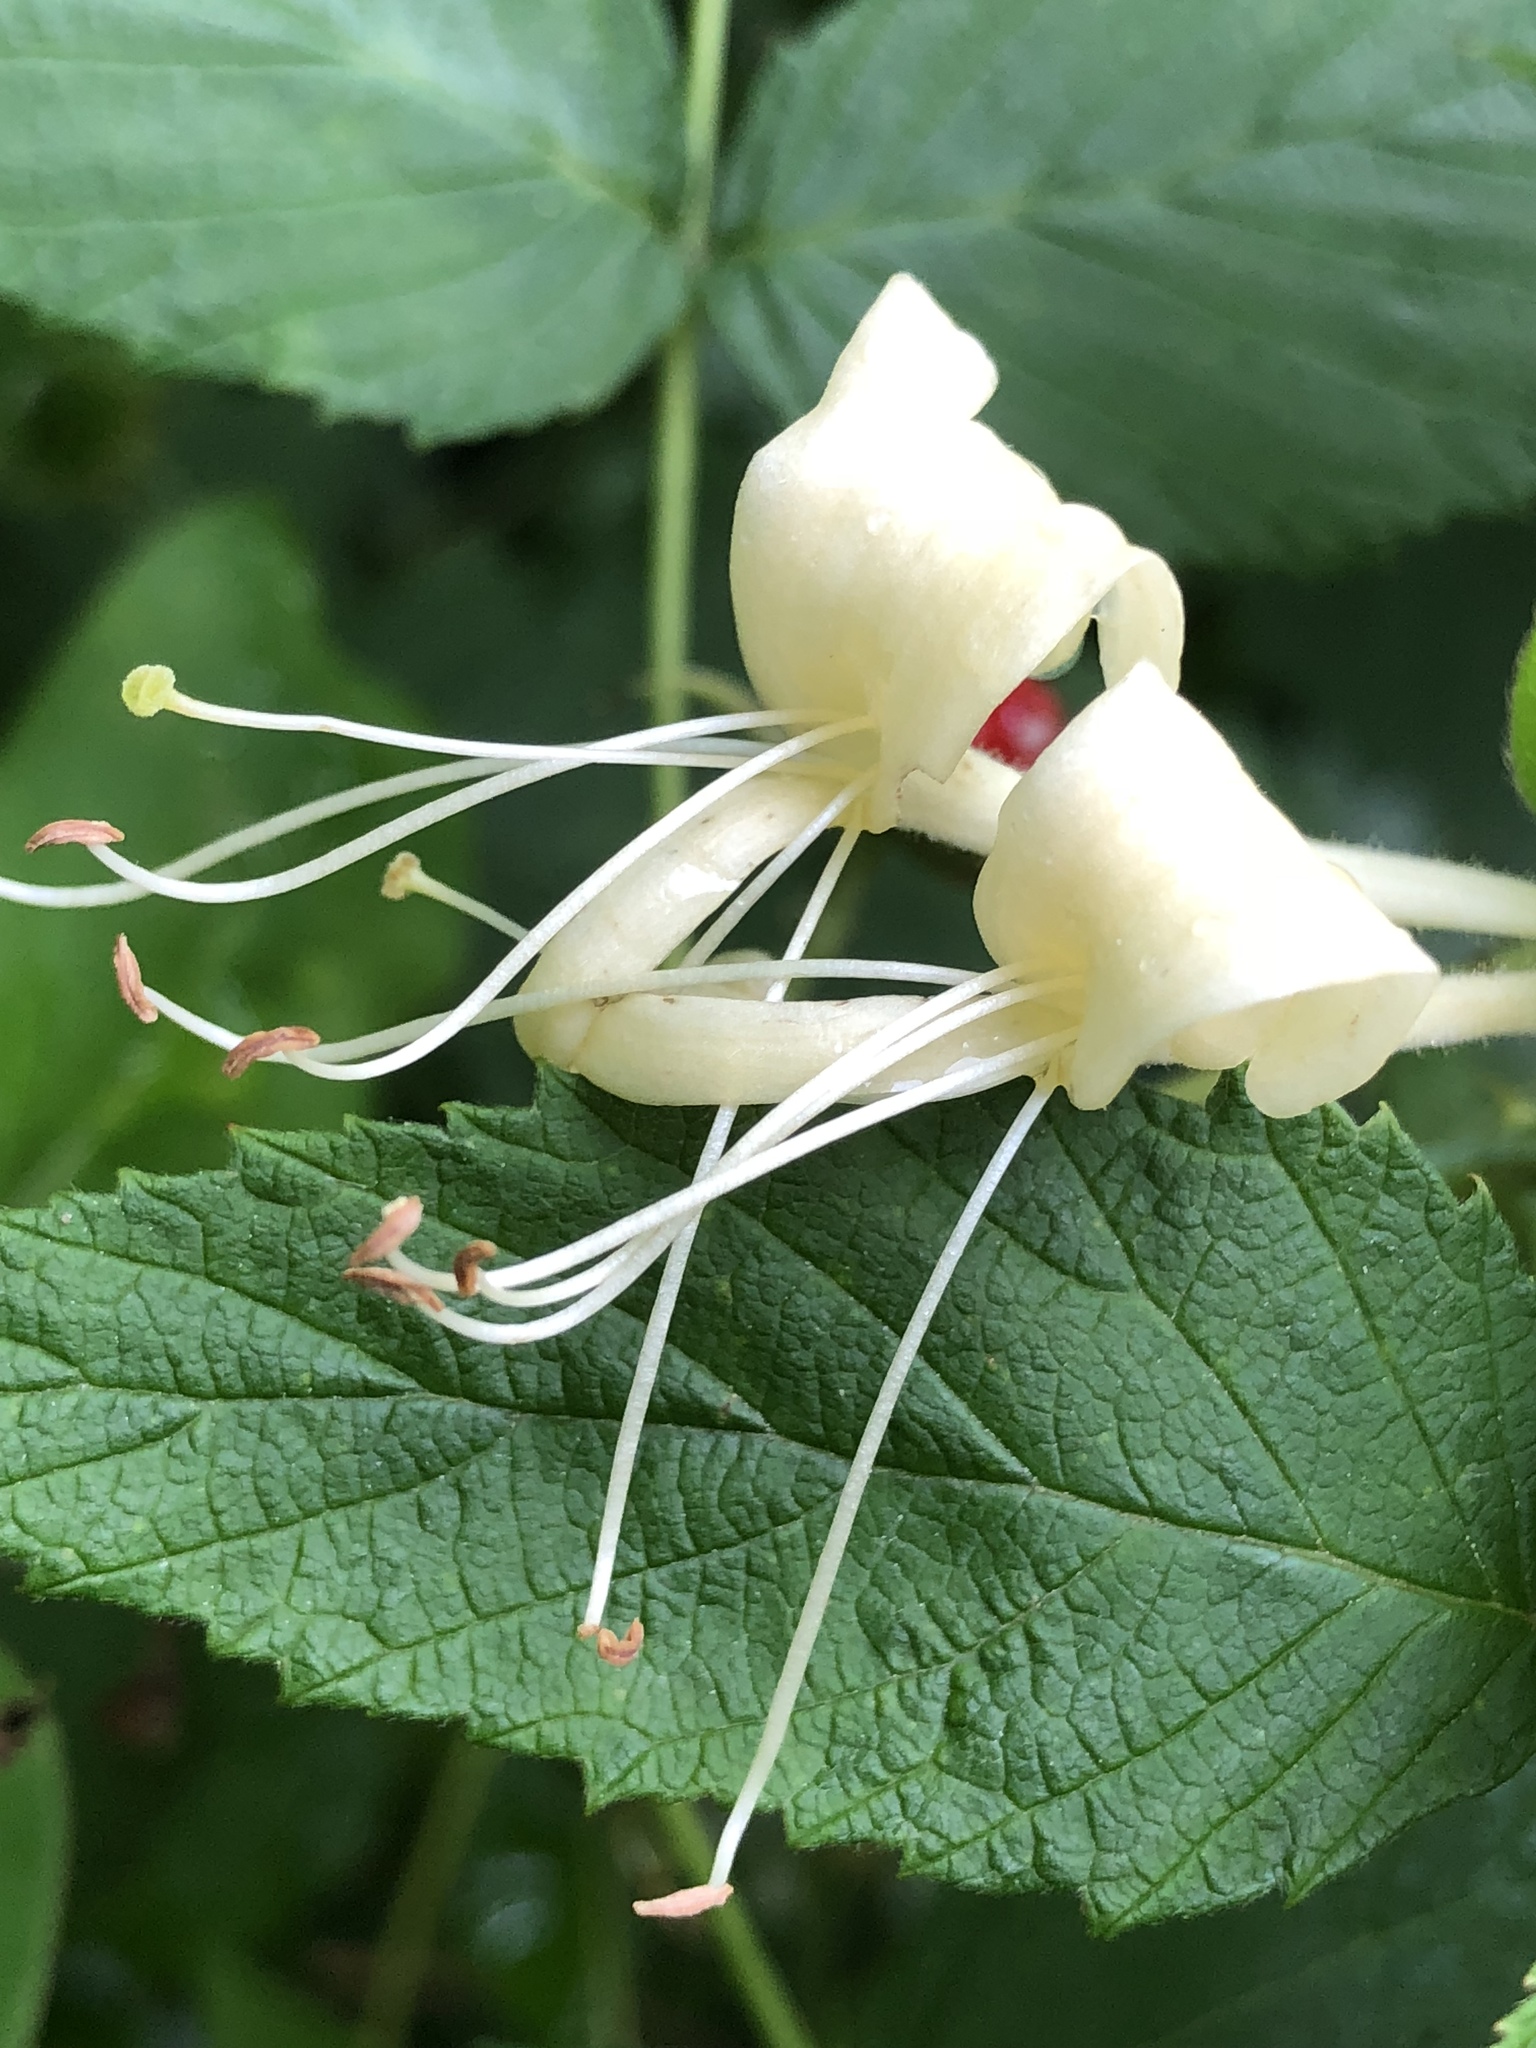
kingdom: Plantae
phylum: Tracheophyta
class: Magnoliopsida
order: Dipsacales
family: Caprifoliaceae
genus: Lonicera
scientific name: Lonicera japonica
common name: Japanese honeysuckle
